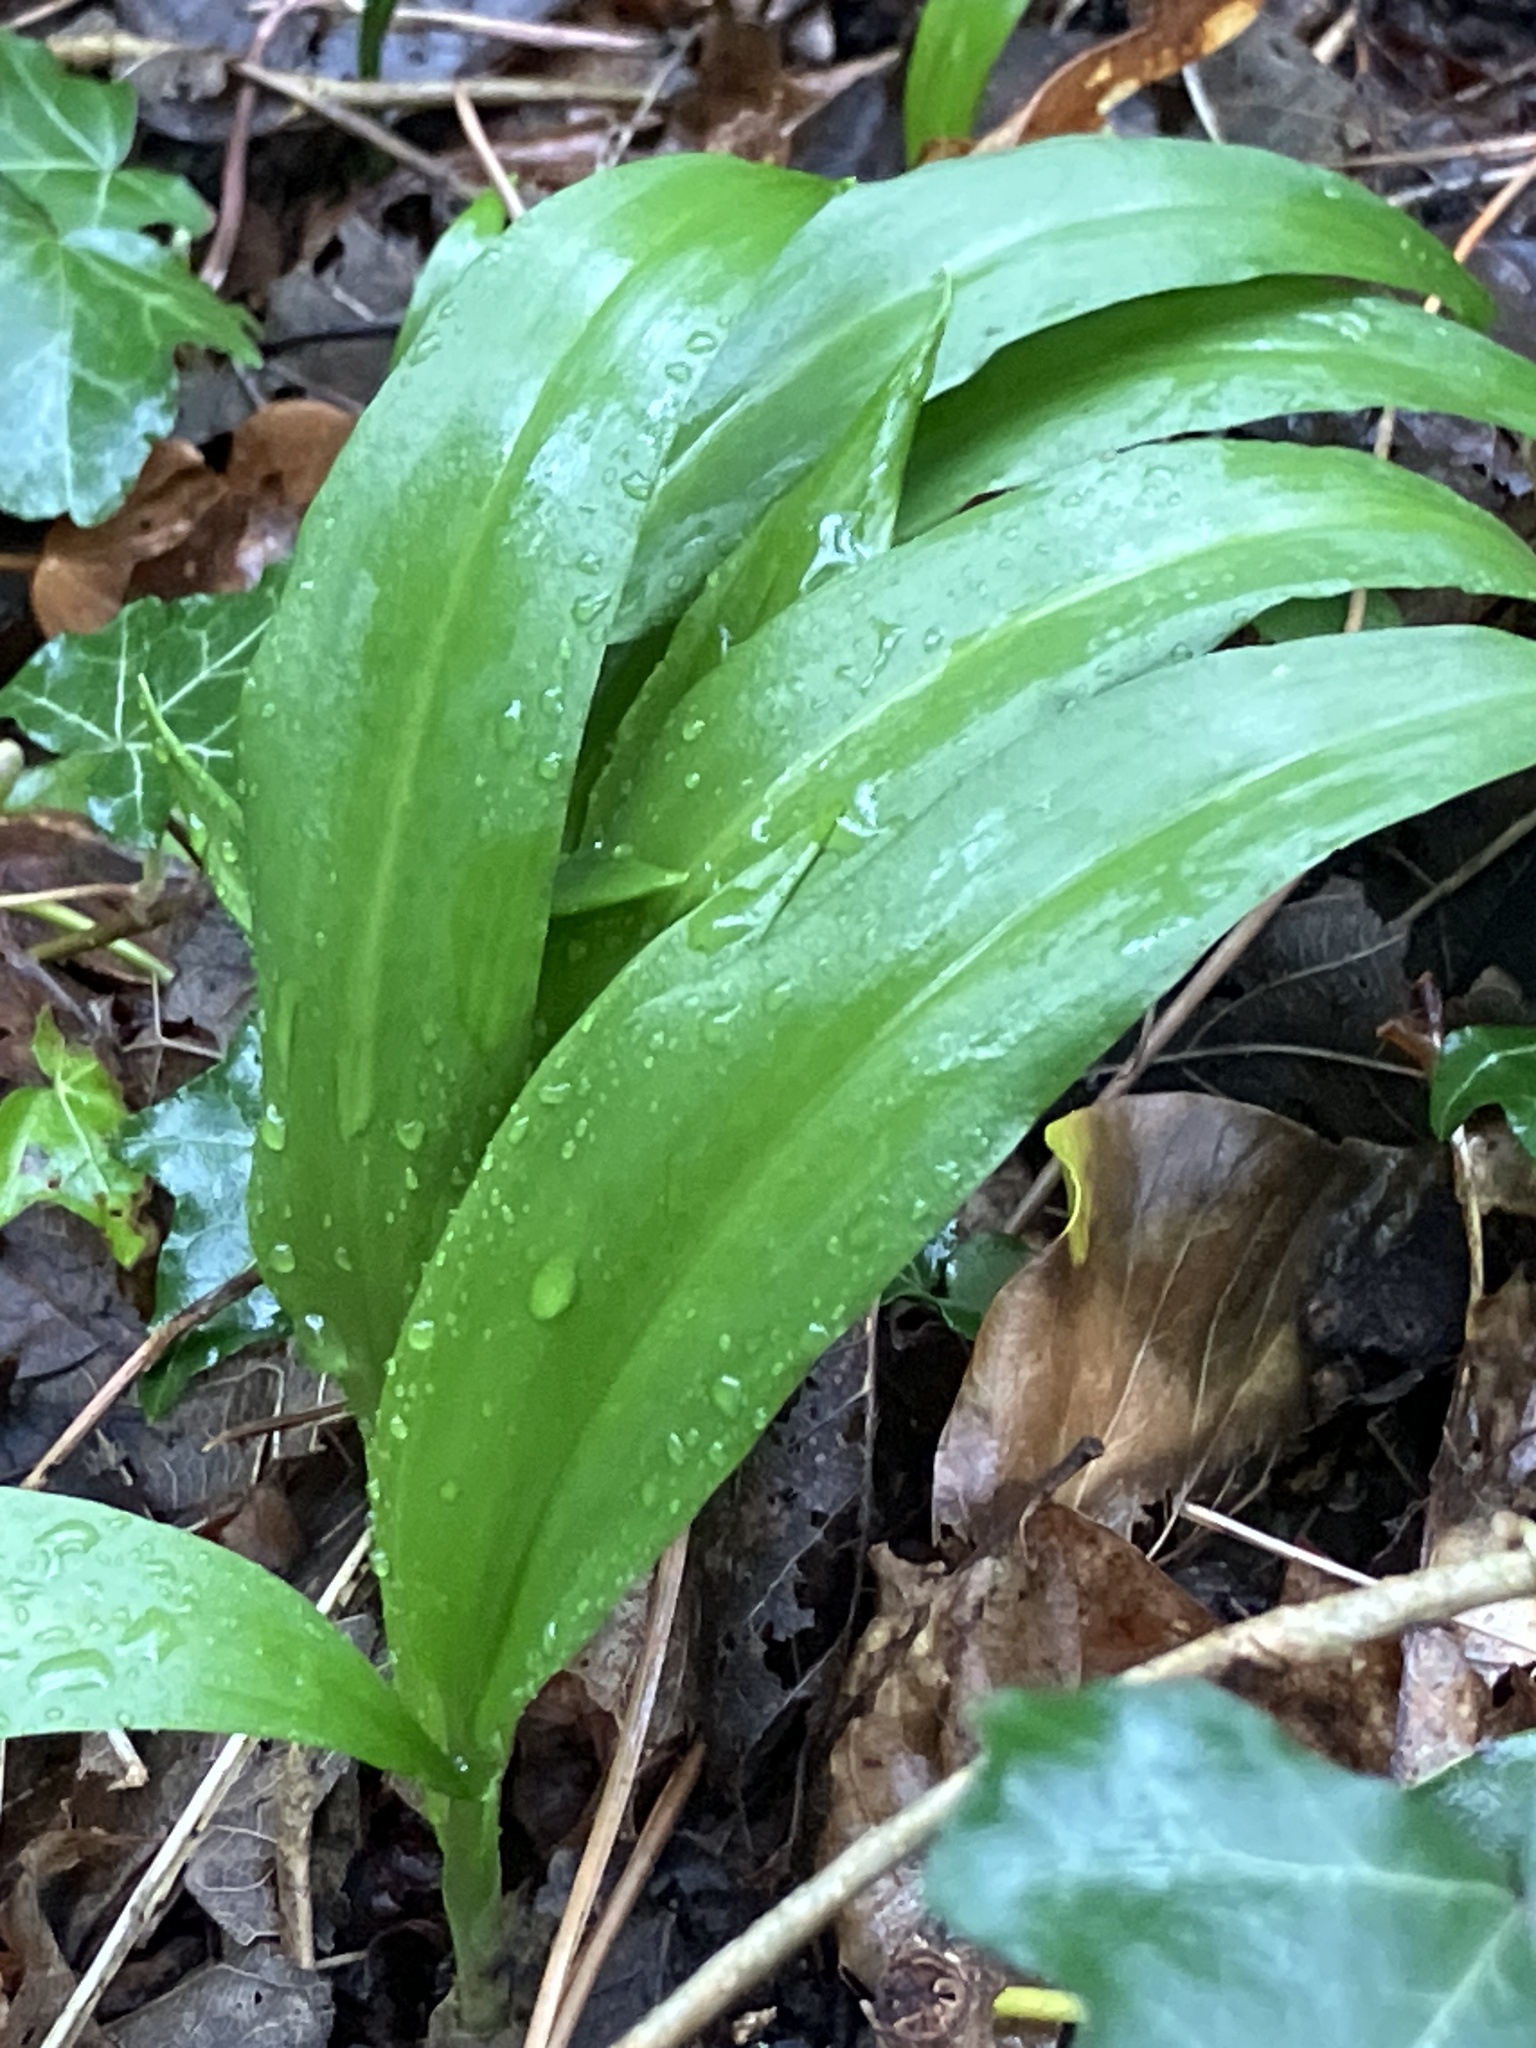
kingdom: Plantae
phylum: Tracheophyta
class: Liliopsida
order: Asparagales
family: Amaryllidaceae
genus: Allium
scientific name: Allium ursinum
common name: Ramsons
